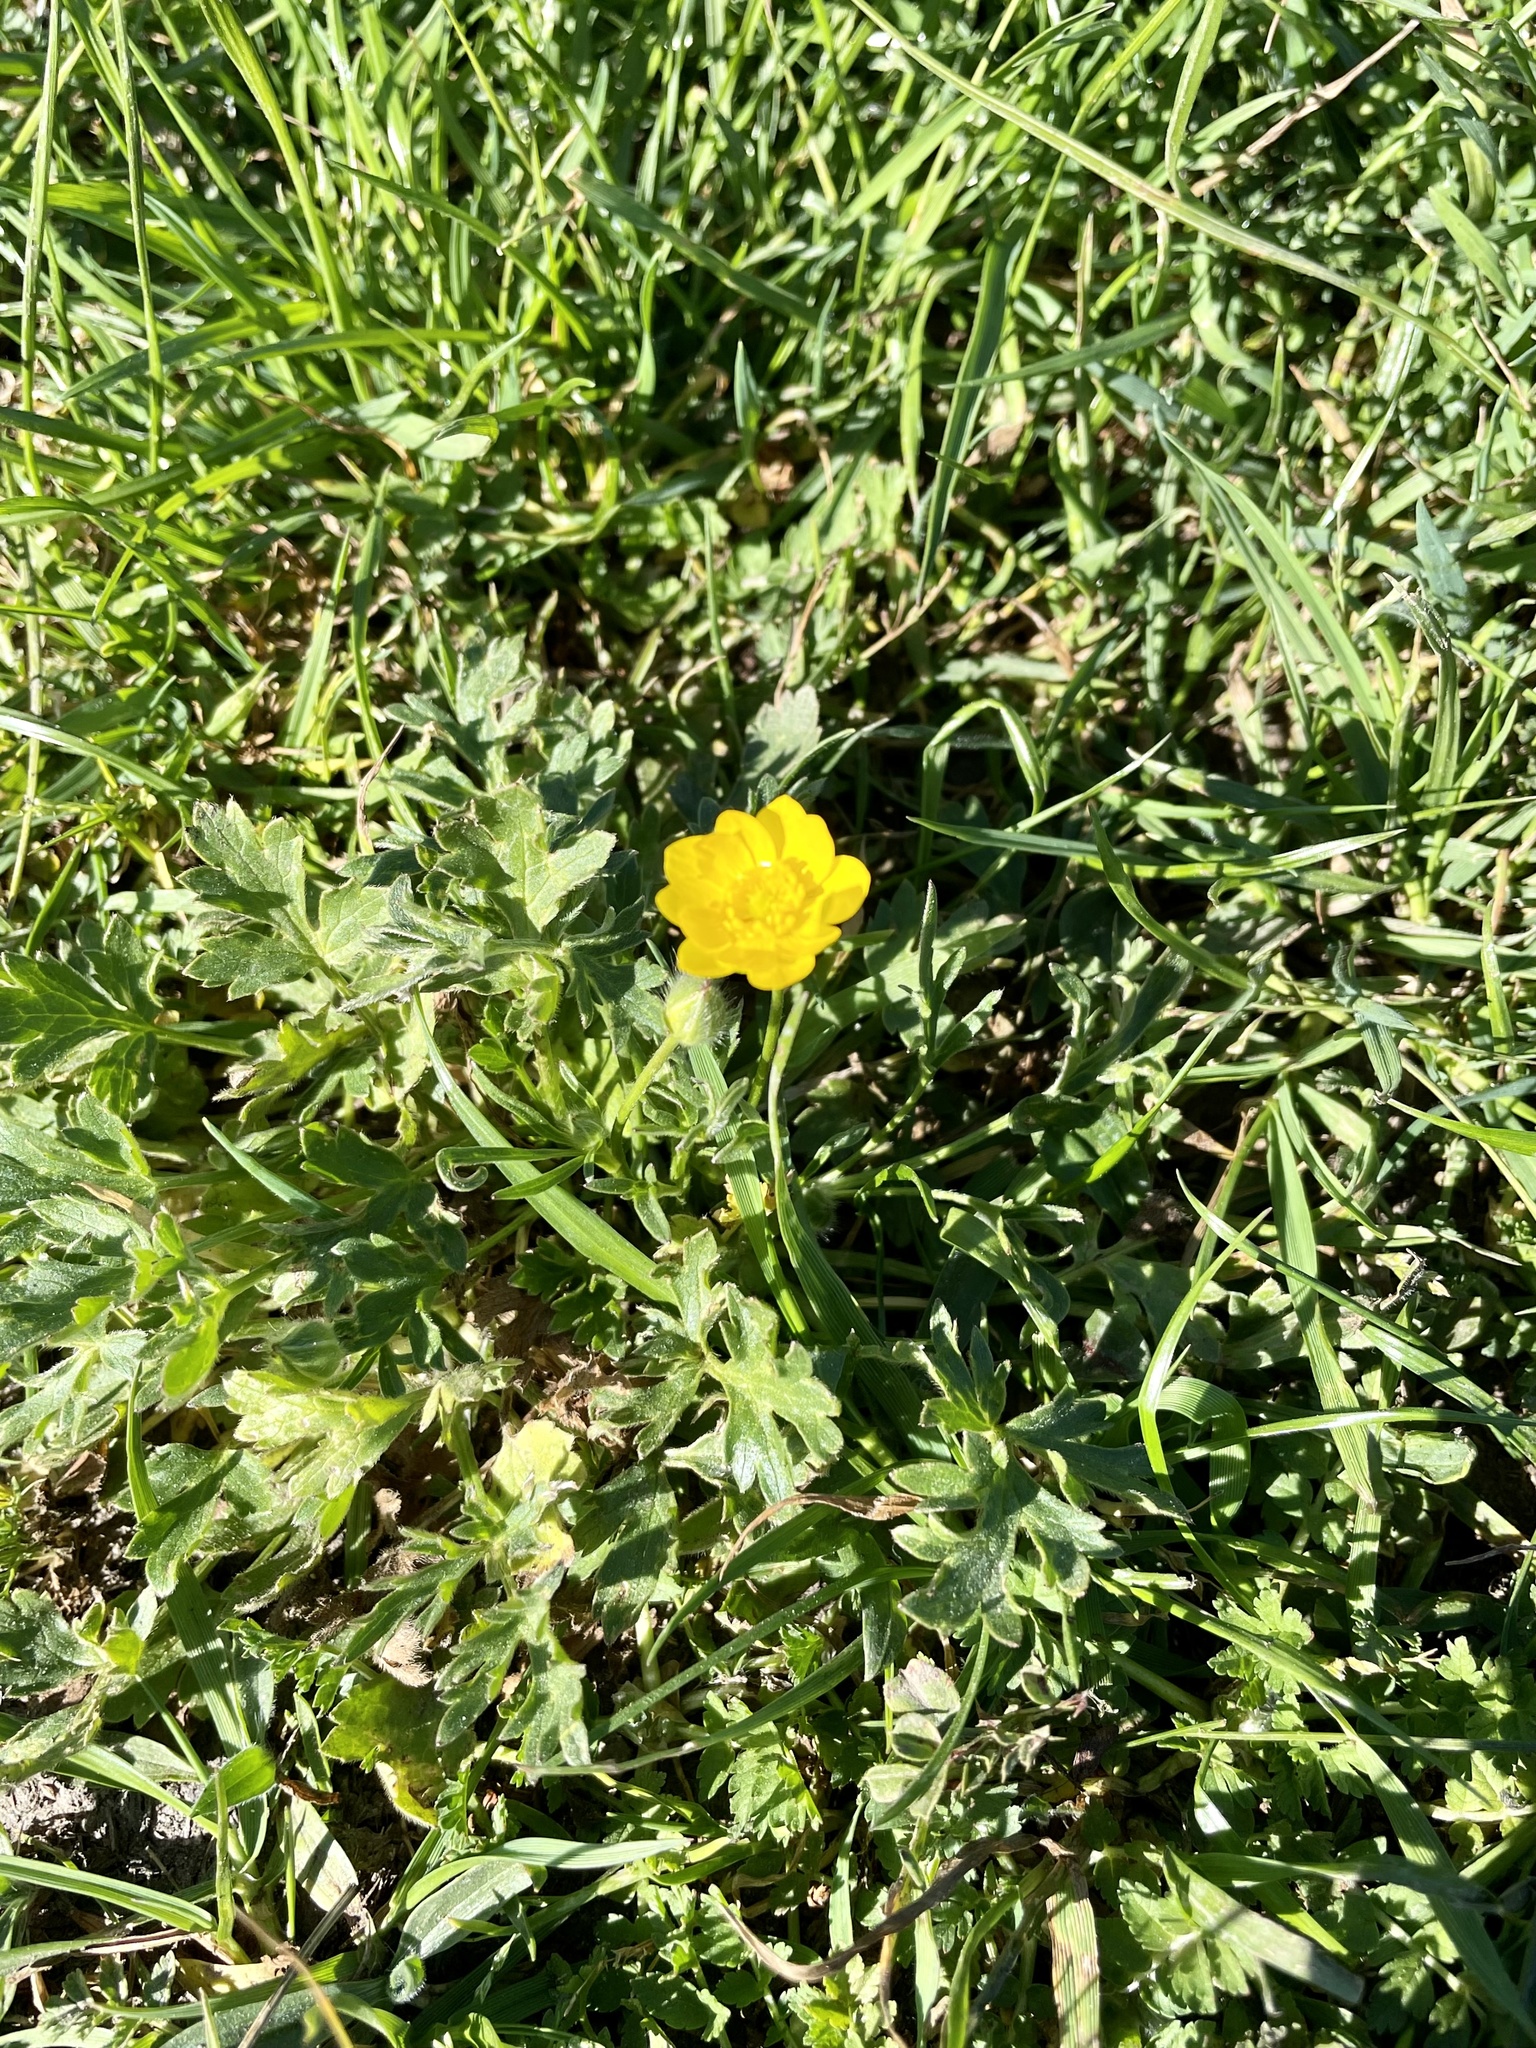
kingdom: Plantae
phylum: Tracheophyta
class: Magnoliopsida
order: Ranunculales
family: Ranunculaceae
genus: Ranunculus
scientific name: Ranunculus californicus
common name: California buttercup
